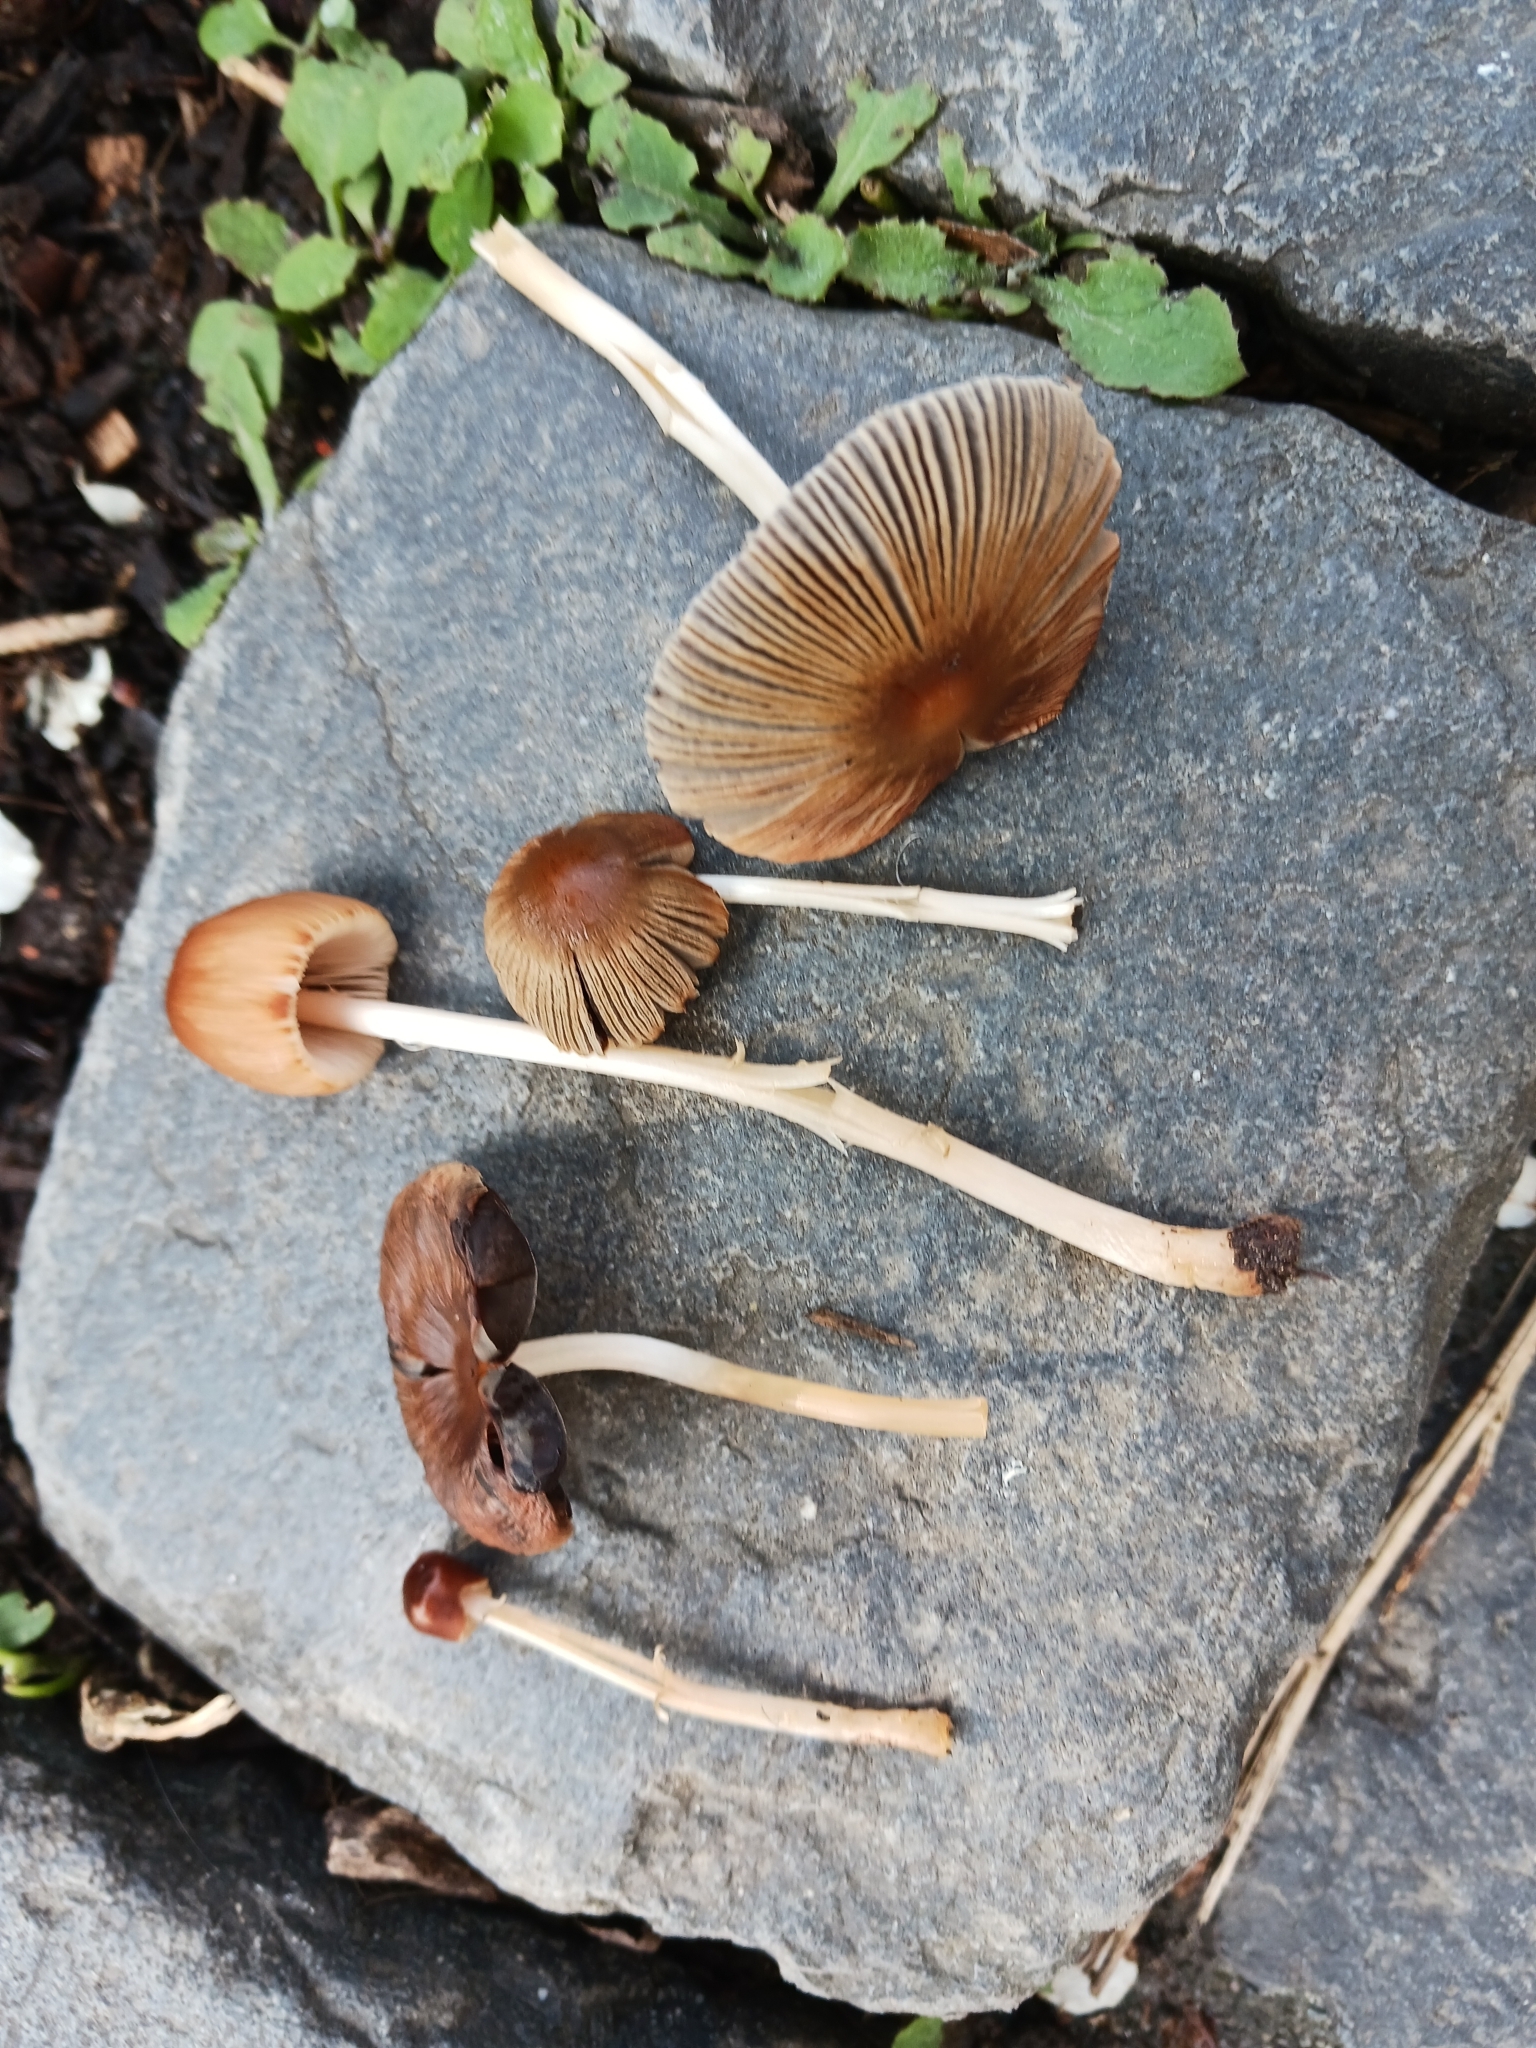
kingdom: Fungi
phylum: Basidiomycota
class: Agaricomycetes
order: Agaricales
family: Psathyrellaceae
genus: Parasola
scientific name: Parasola auricoma
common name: Goldenhaired inkcap
